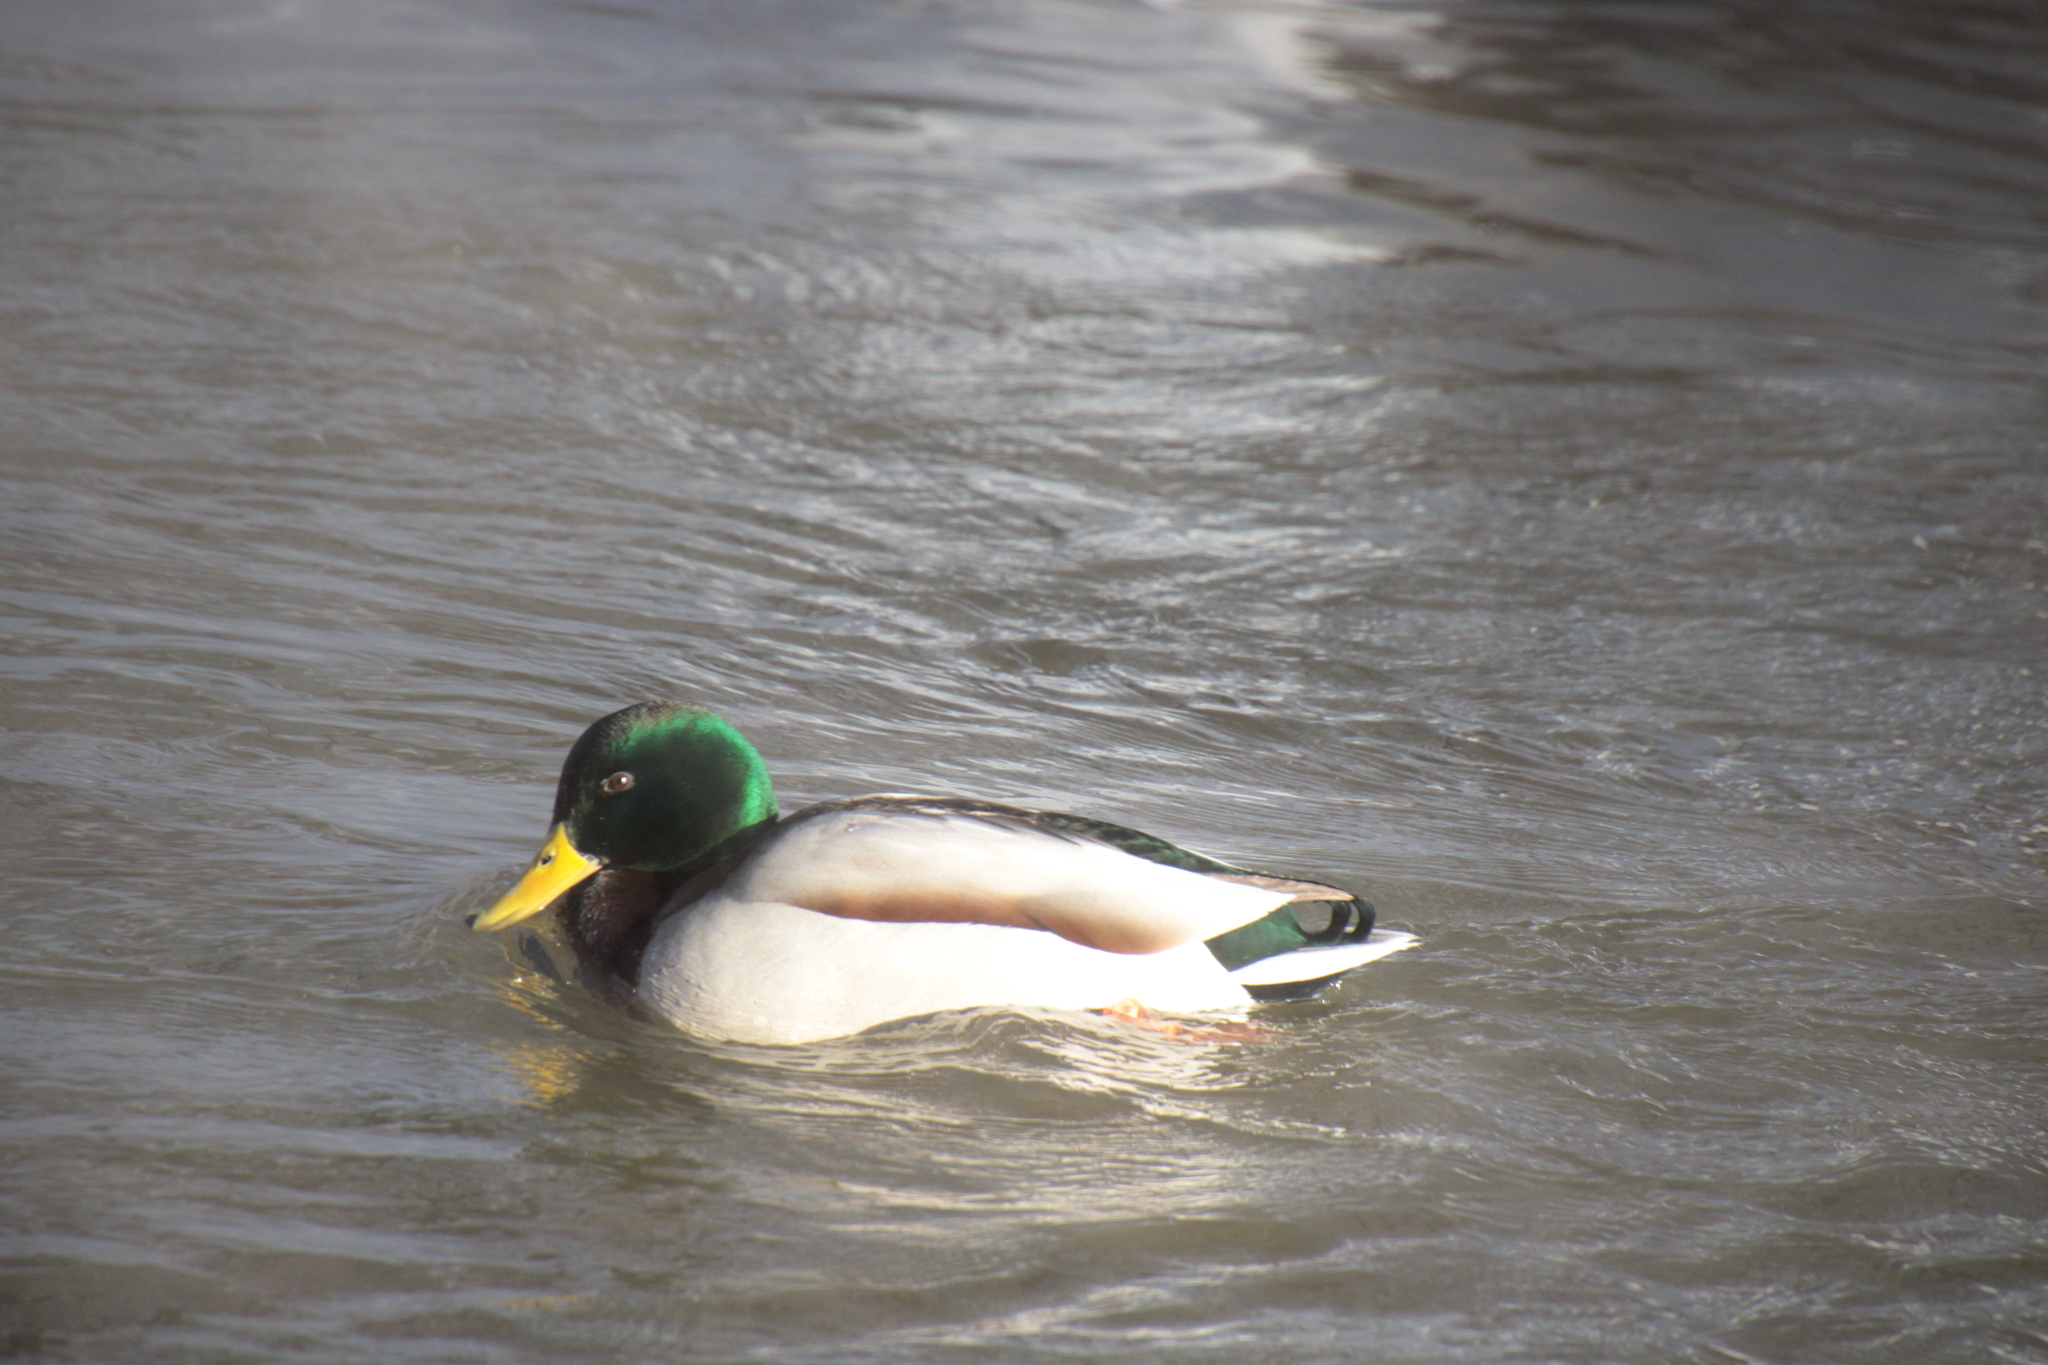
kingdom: Animalia
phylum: Chordata
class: Aves
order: Anseriformes
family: Anatidae
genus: Anas
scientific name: Anas platyrhynchos
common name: Mallard
